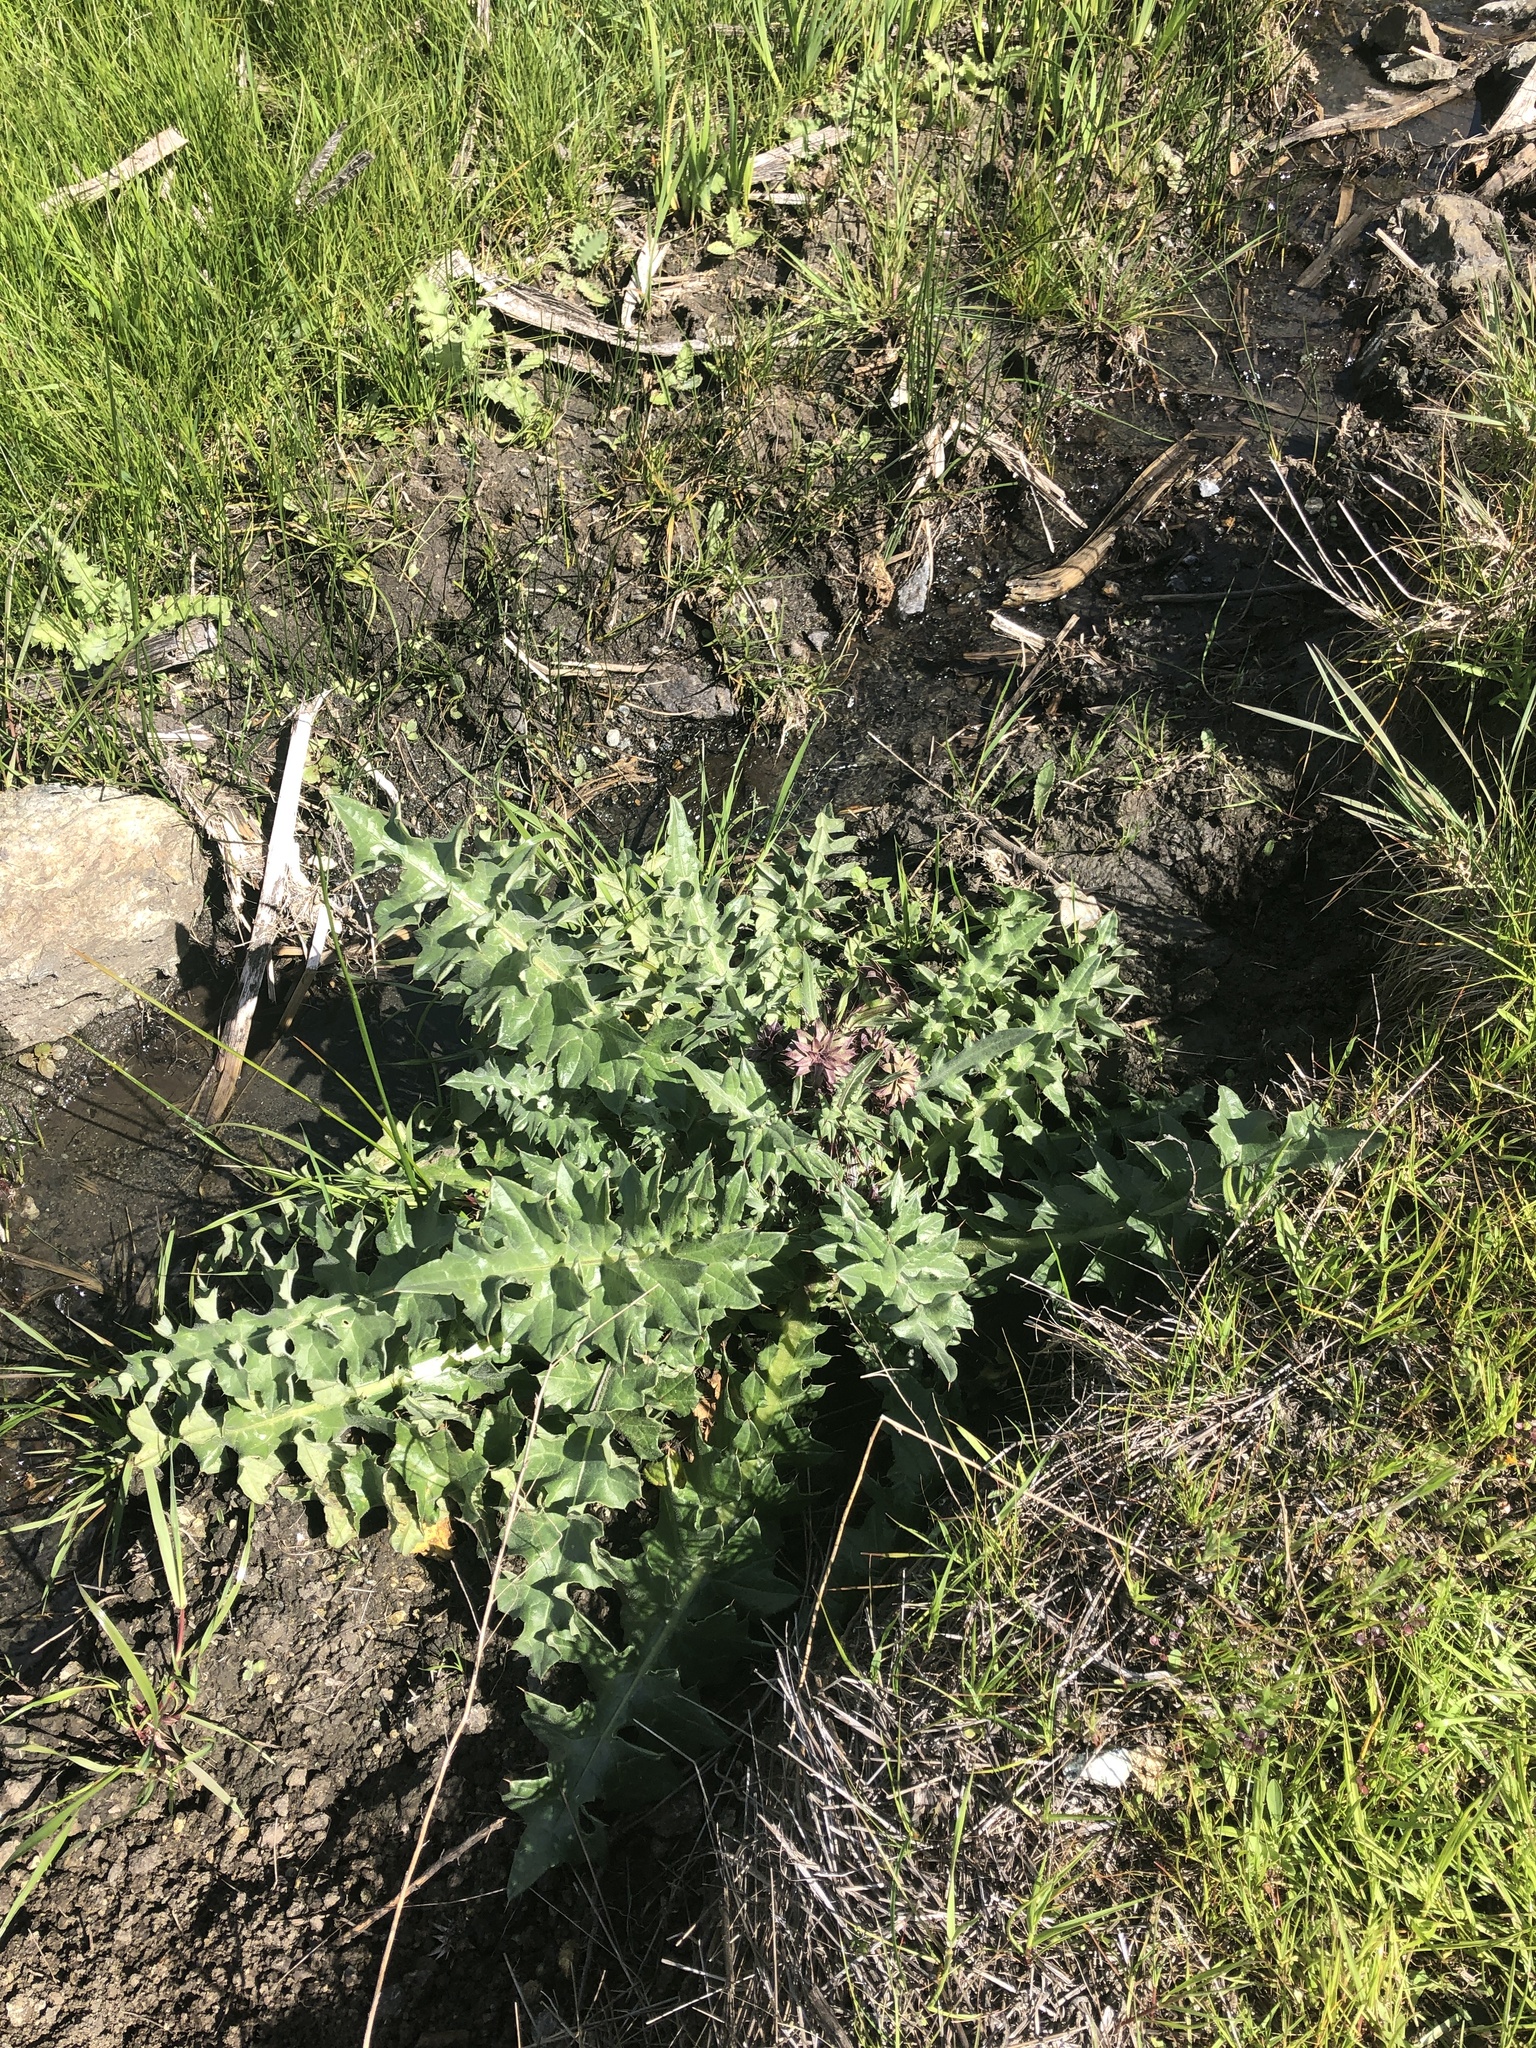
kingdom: Plantae
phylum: Tracheophyta
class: Magnoliopsida
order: Asterales
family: Asteraceae
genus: Cirsium
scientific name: Cirsium fontinale
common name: Fountain thistle
